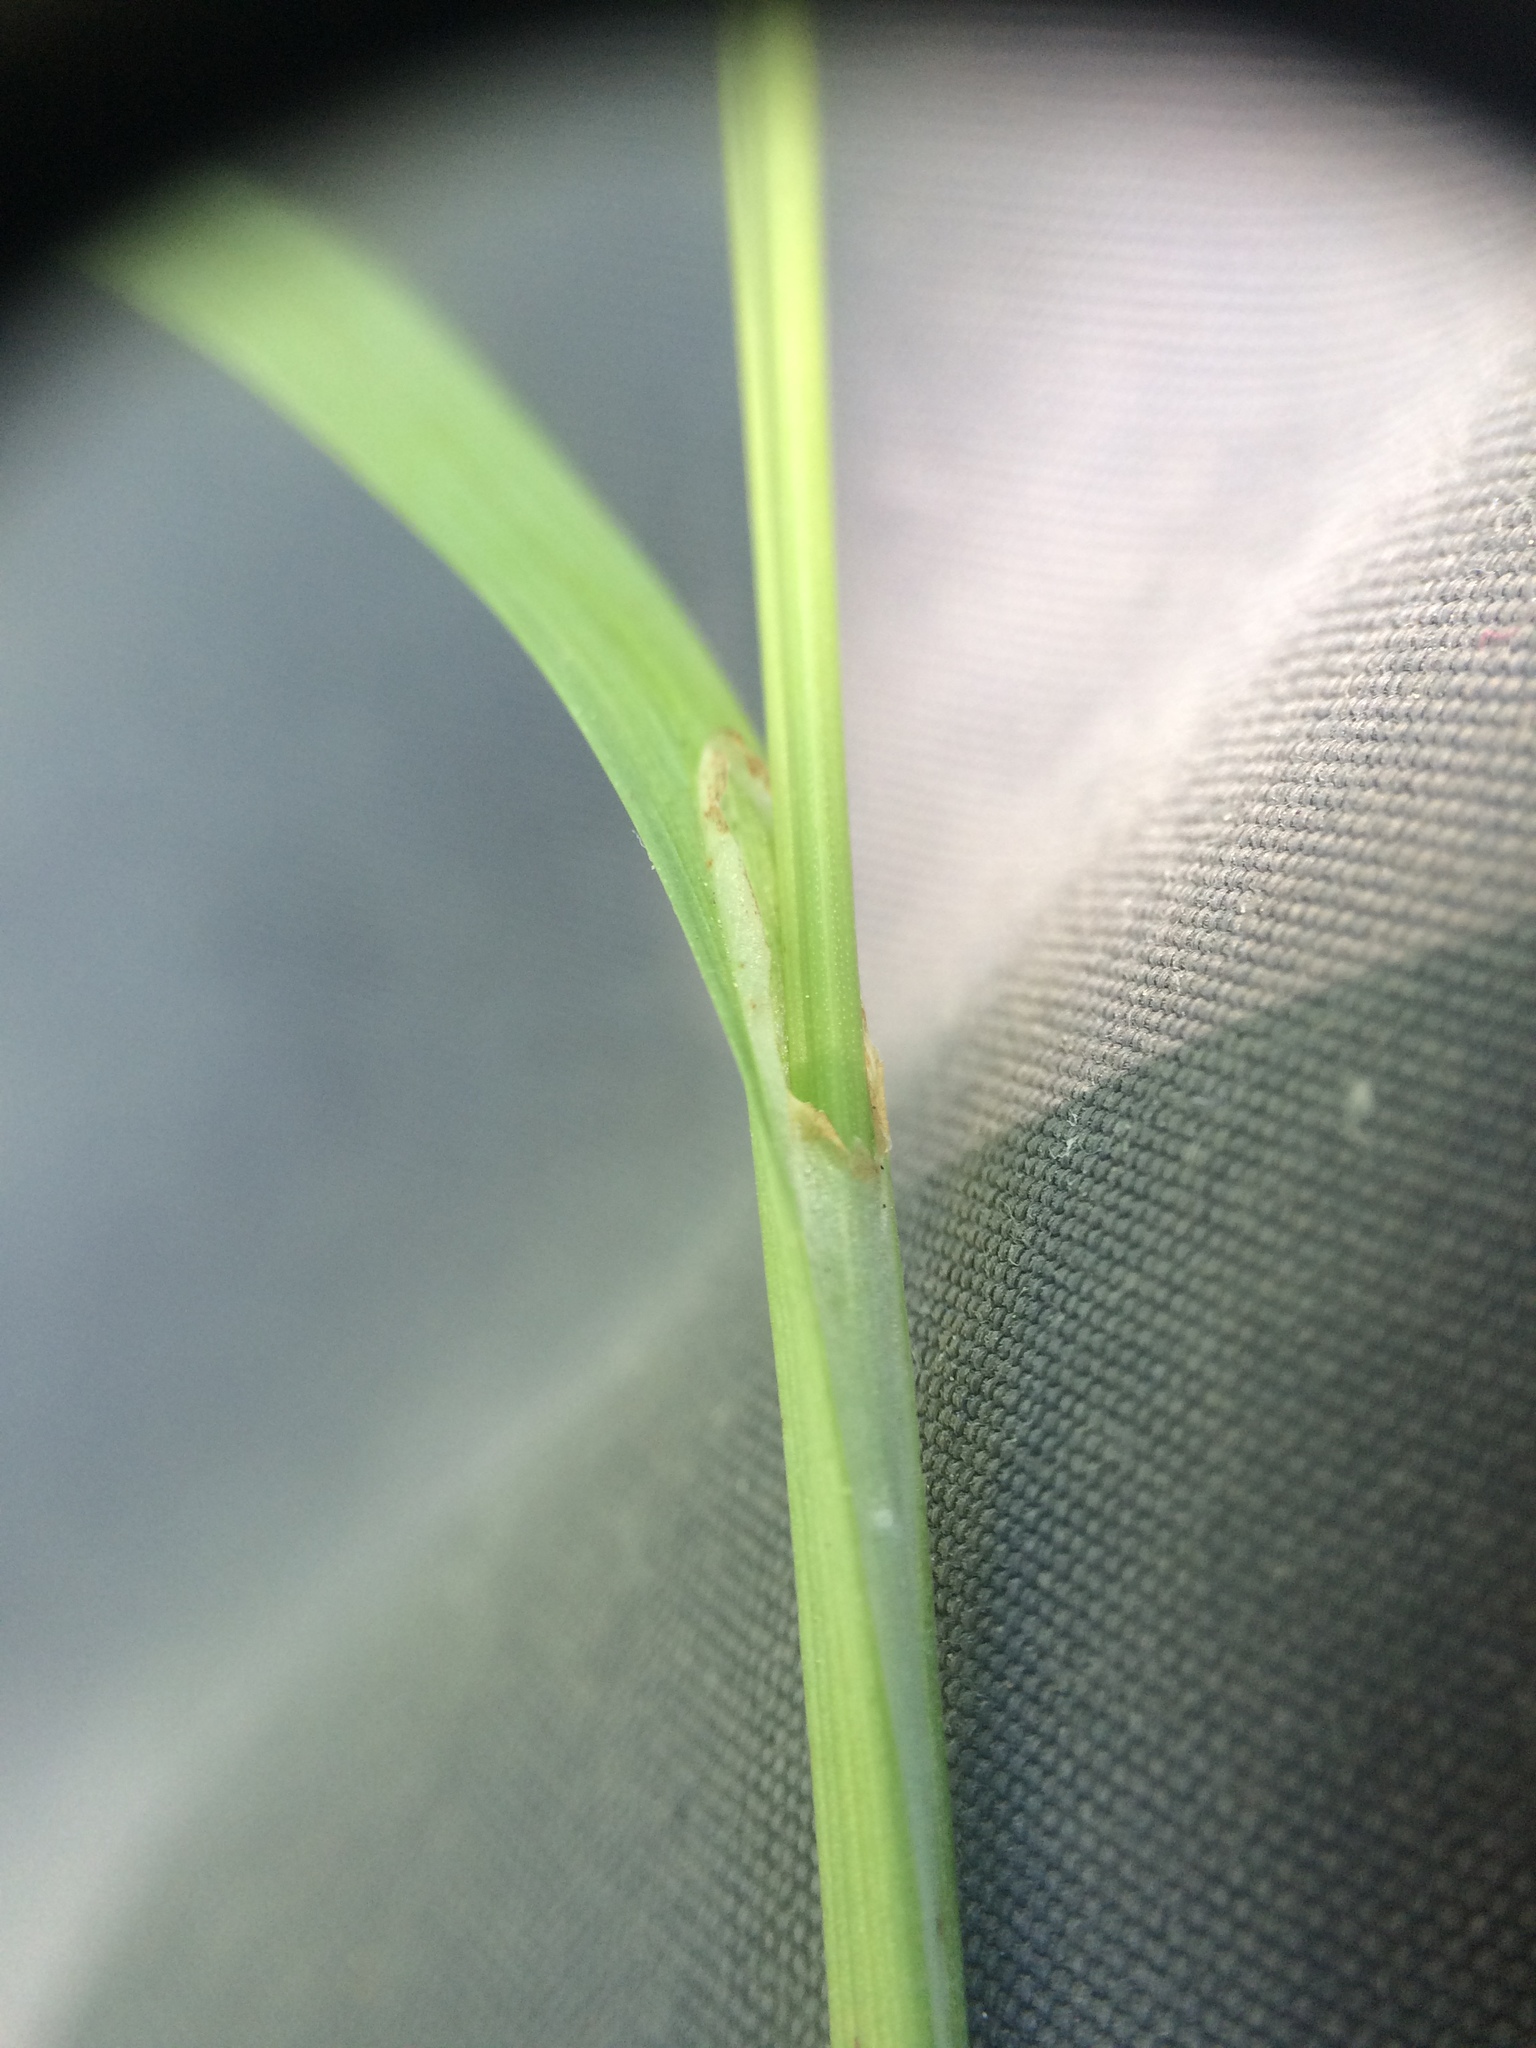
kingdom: Plantae
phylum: Tracheophyta
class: Liliopsida
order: Poales
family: Cyperaceae
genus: Carex
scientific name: Carex granularis
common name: Granular sedge
